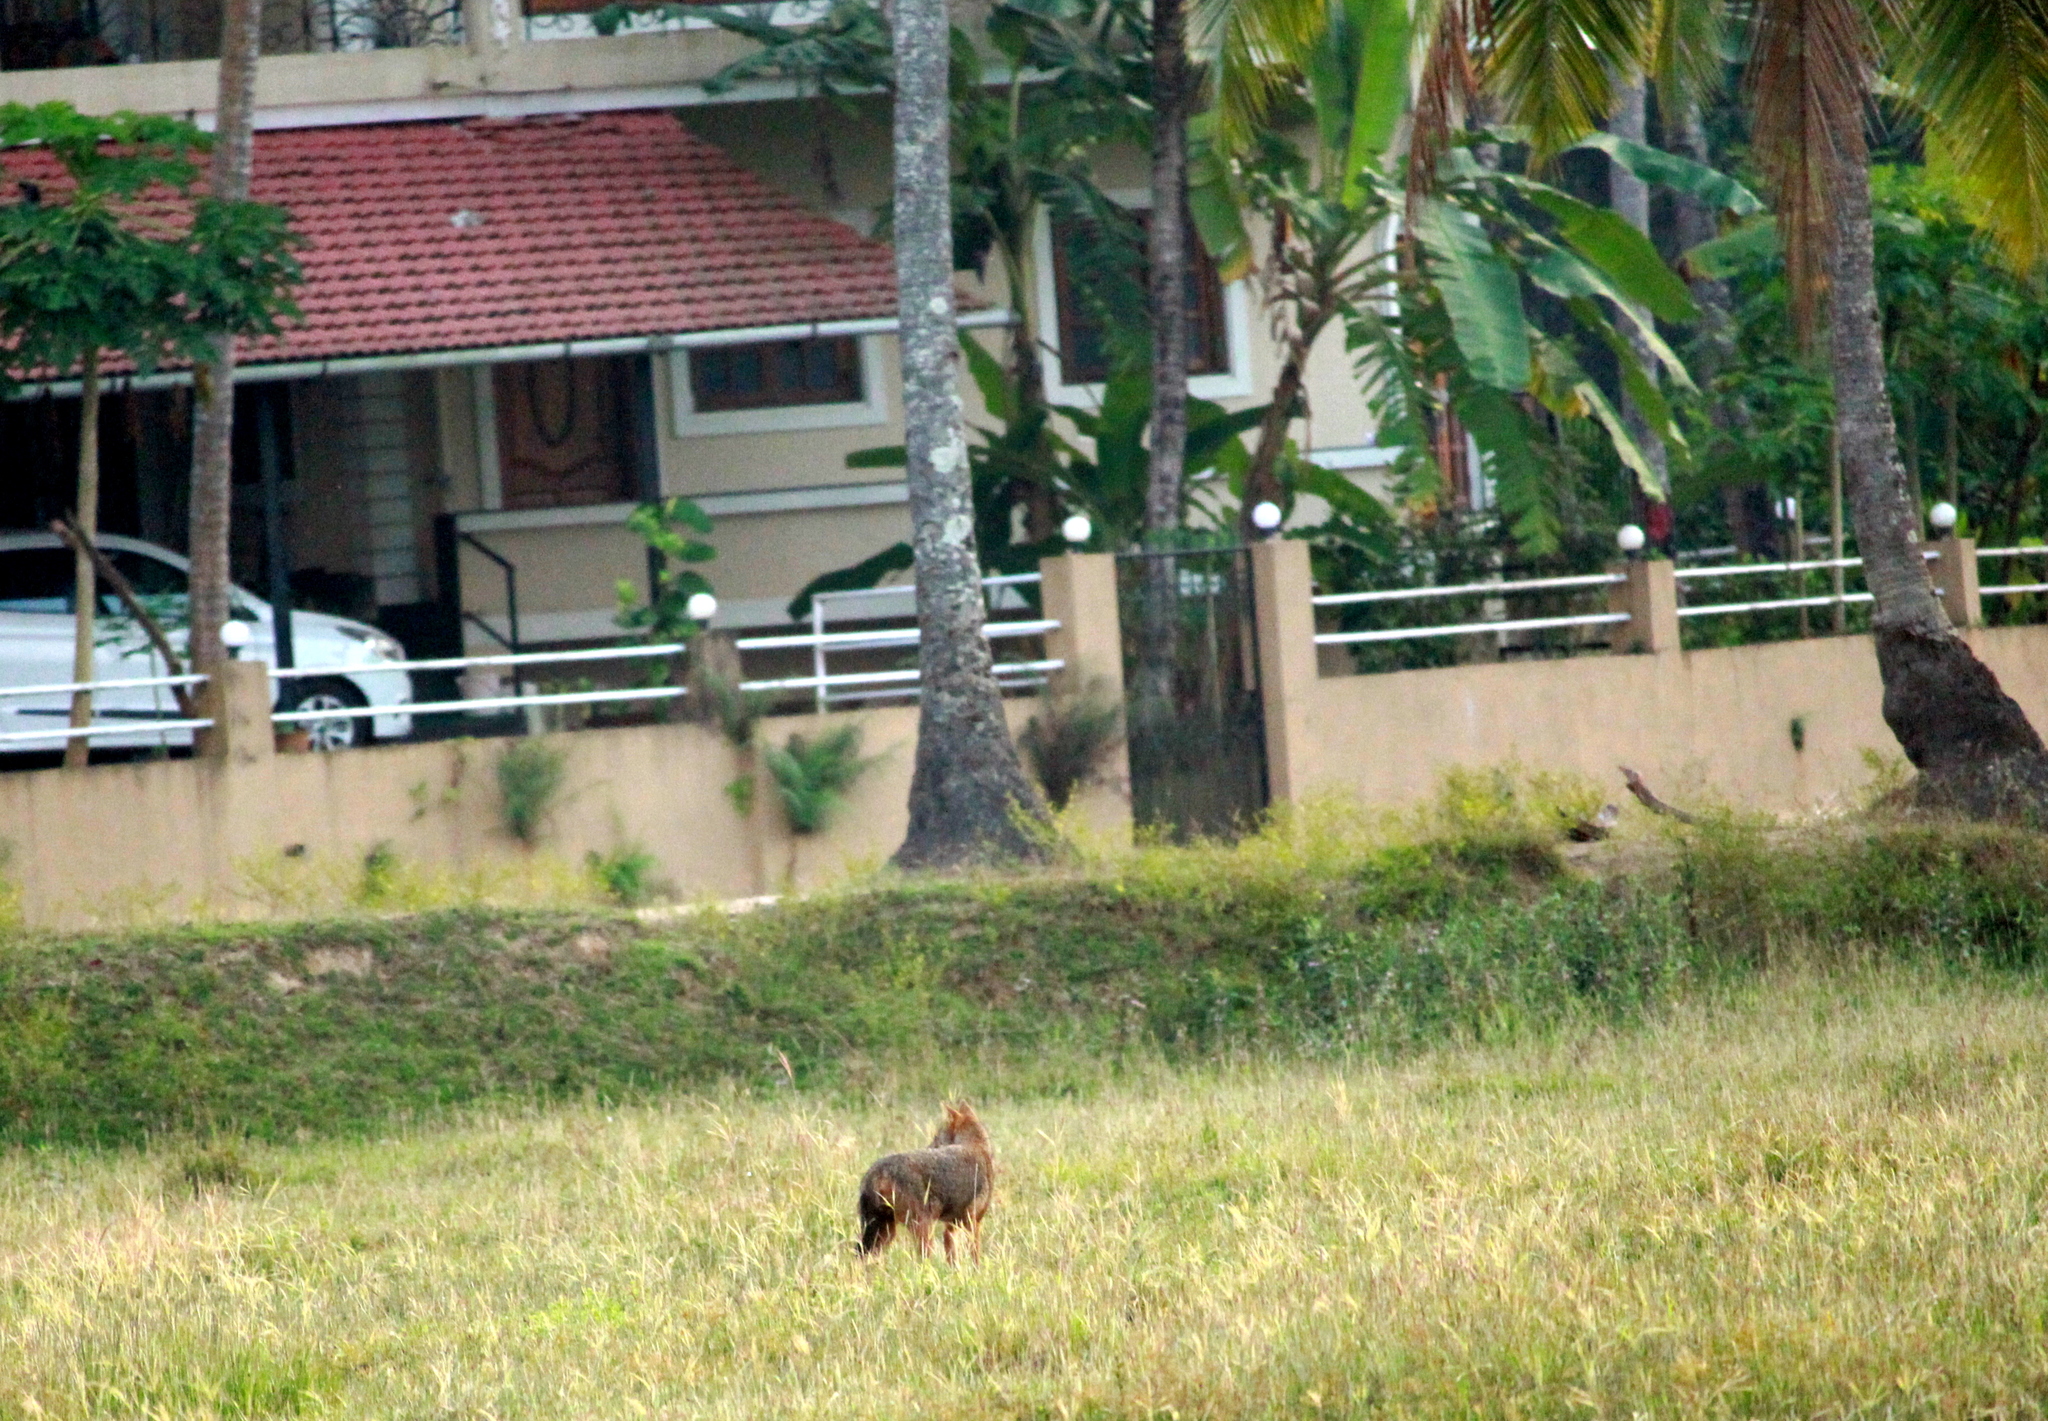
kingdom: Animalia
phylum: Chordata
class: Mammalia
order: Carnivora
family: Canidae
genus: Canis
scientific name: Canis aureus
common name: Golden jackal
